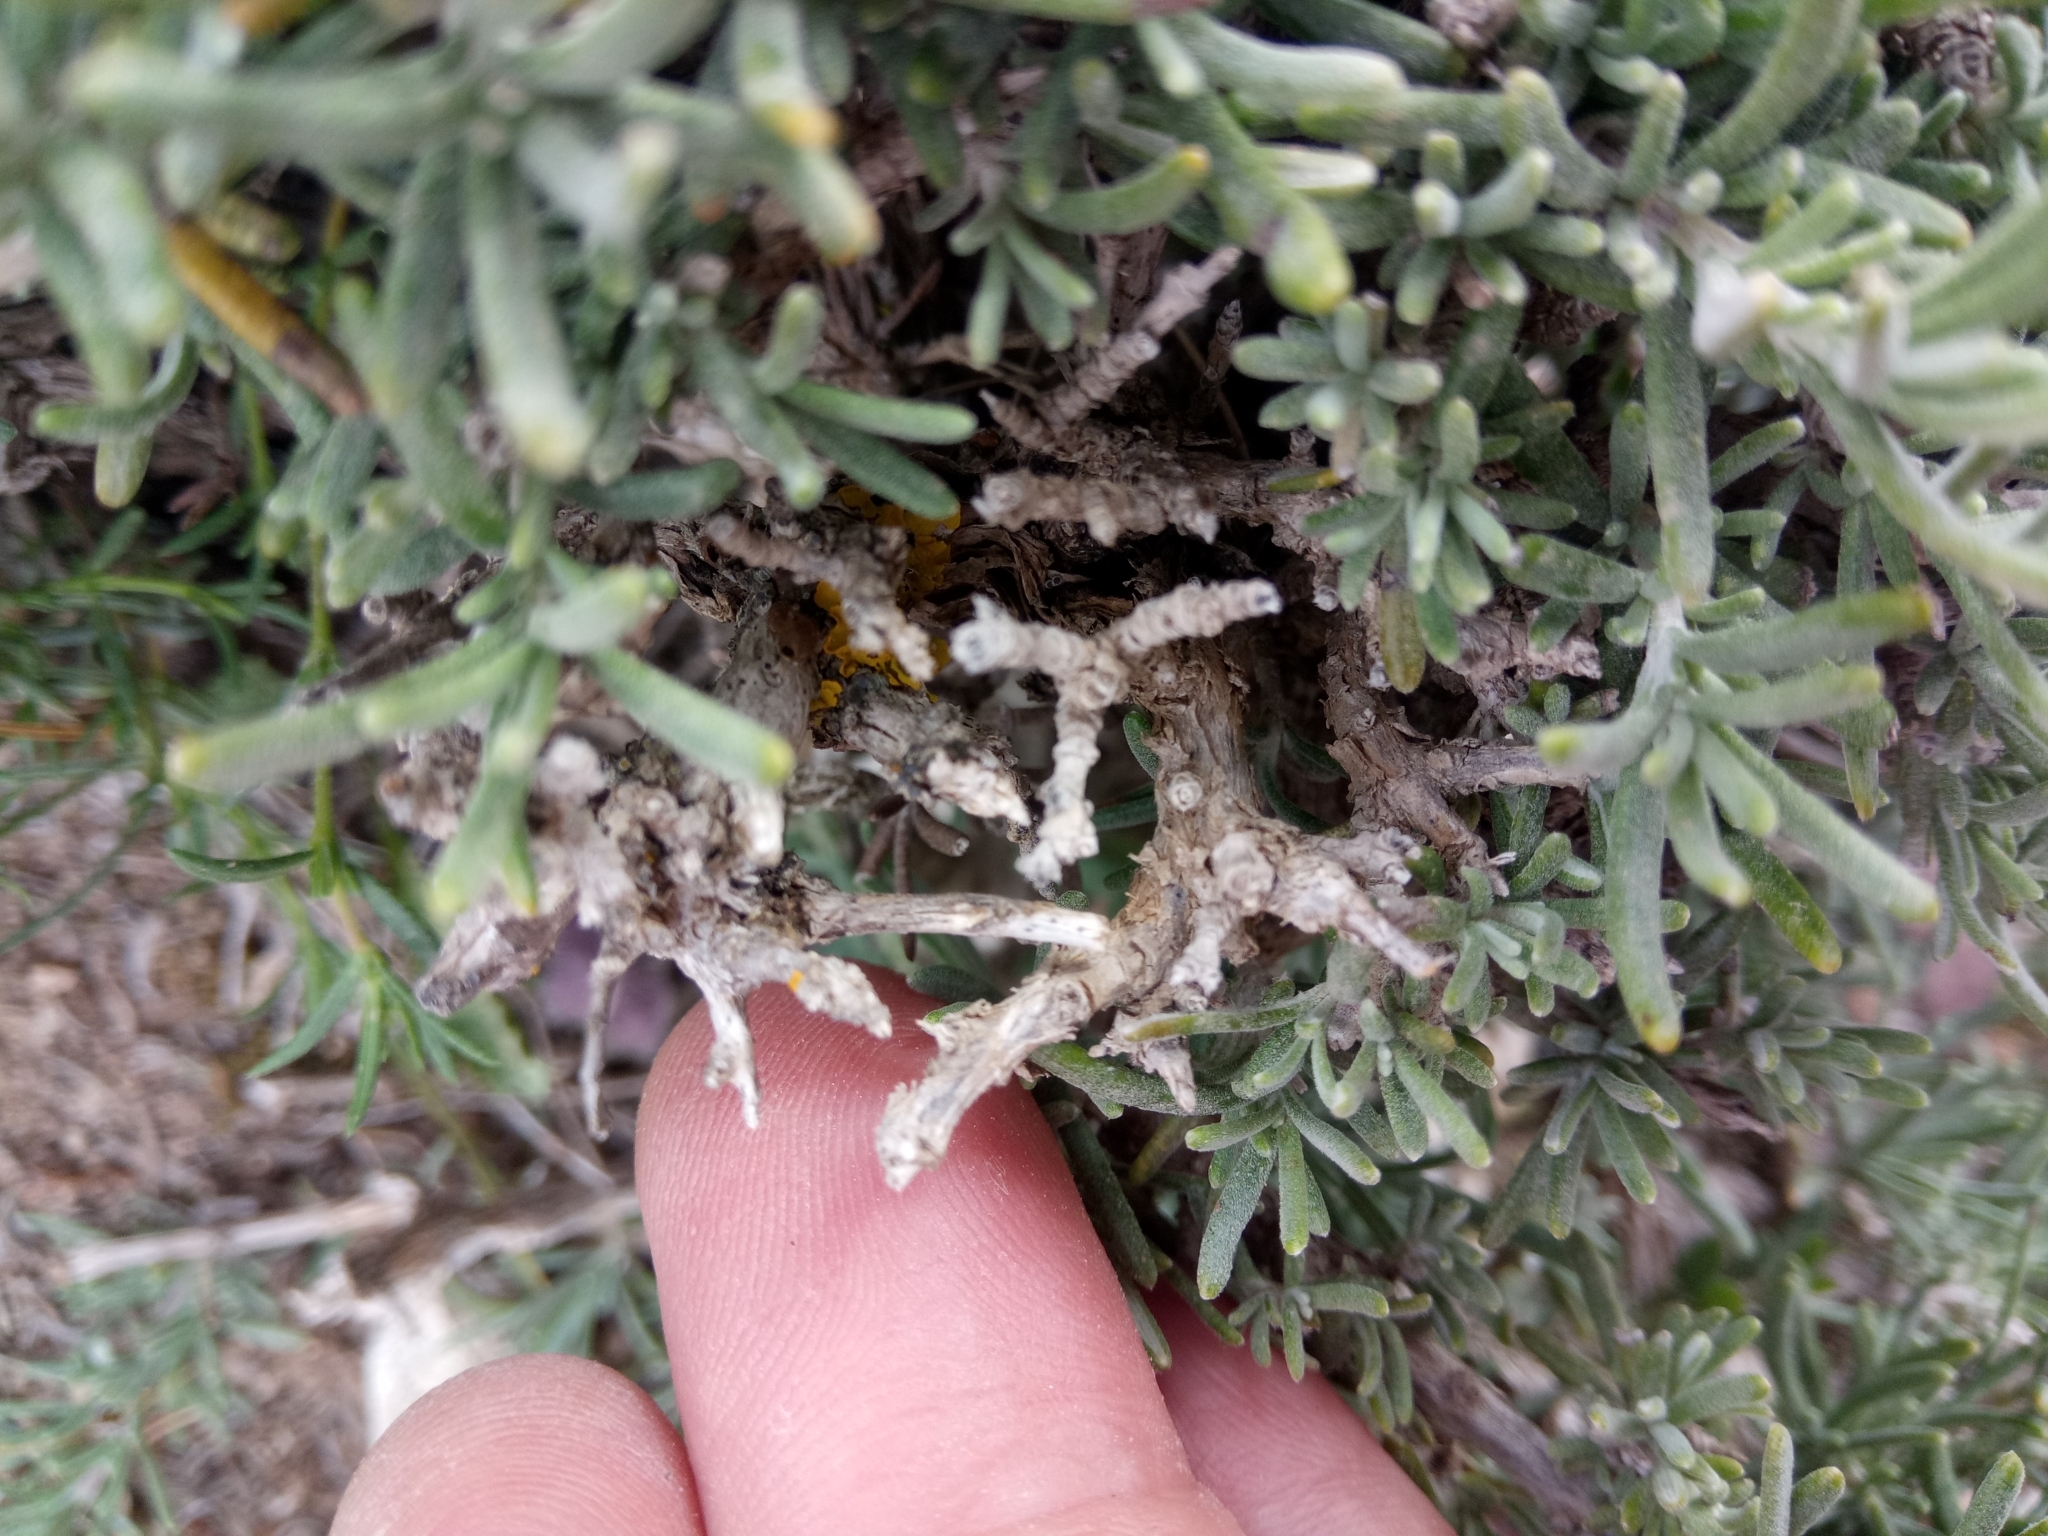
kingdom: Plantae
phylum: Tracheophyta
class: Magnoliopsida
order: Lamiales
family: Lamiaceae
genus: Salvia
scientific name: Salvia jordanii
